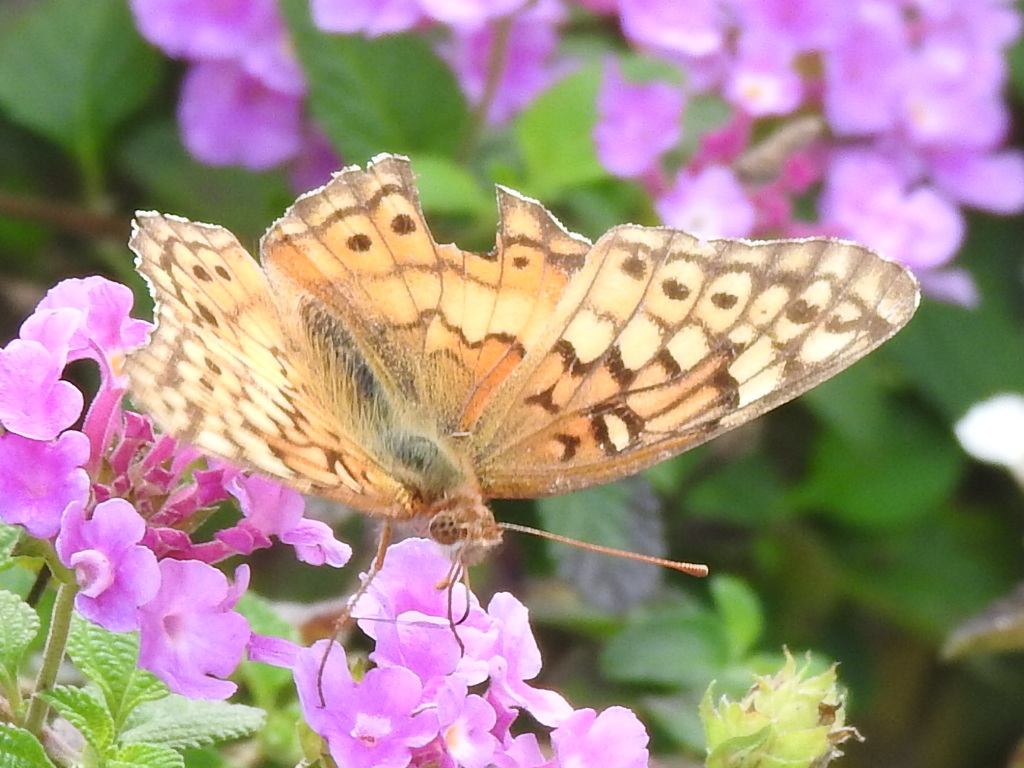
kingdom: Animalia
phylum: Arthropoda
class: Insecta
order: Lepidoptera
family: Nymphalidae
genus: Euptoieta
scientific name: Euptoieta claudia
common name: Variegated fritillary
